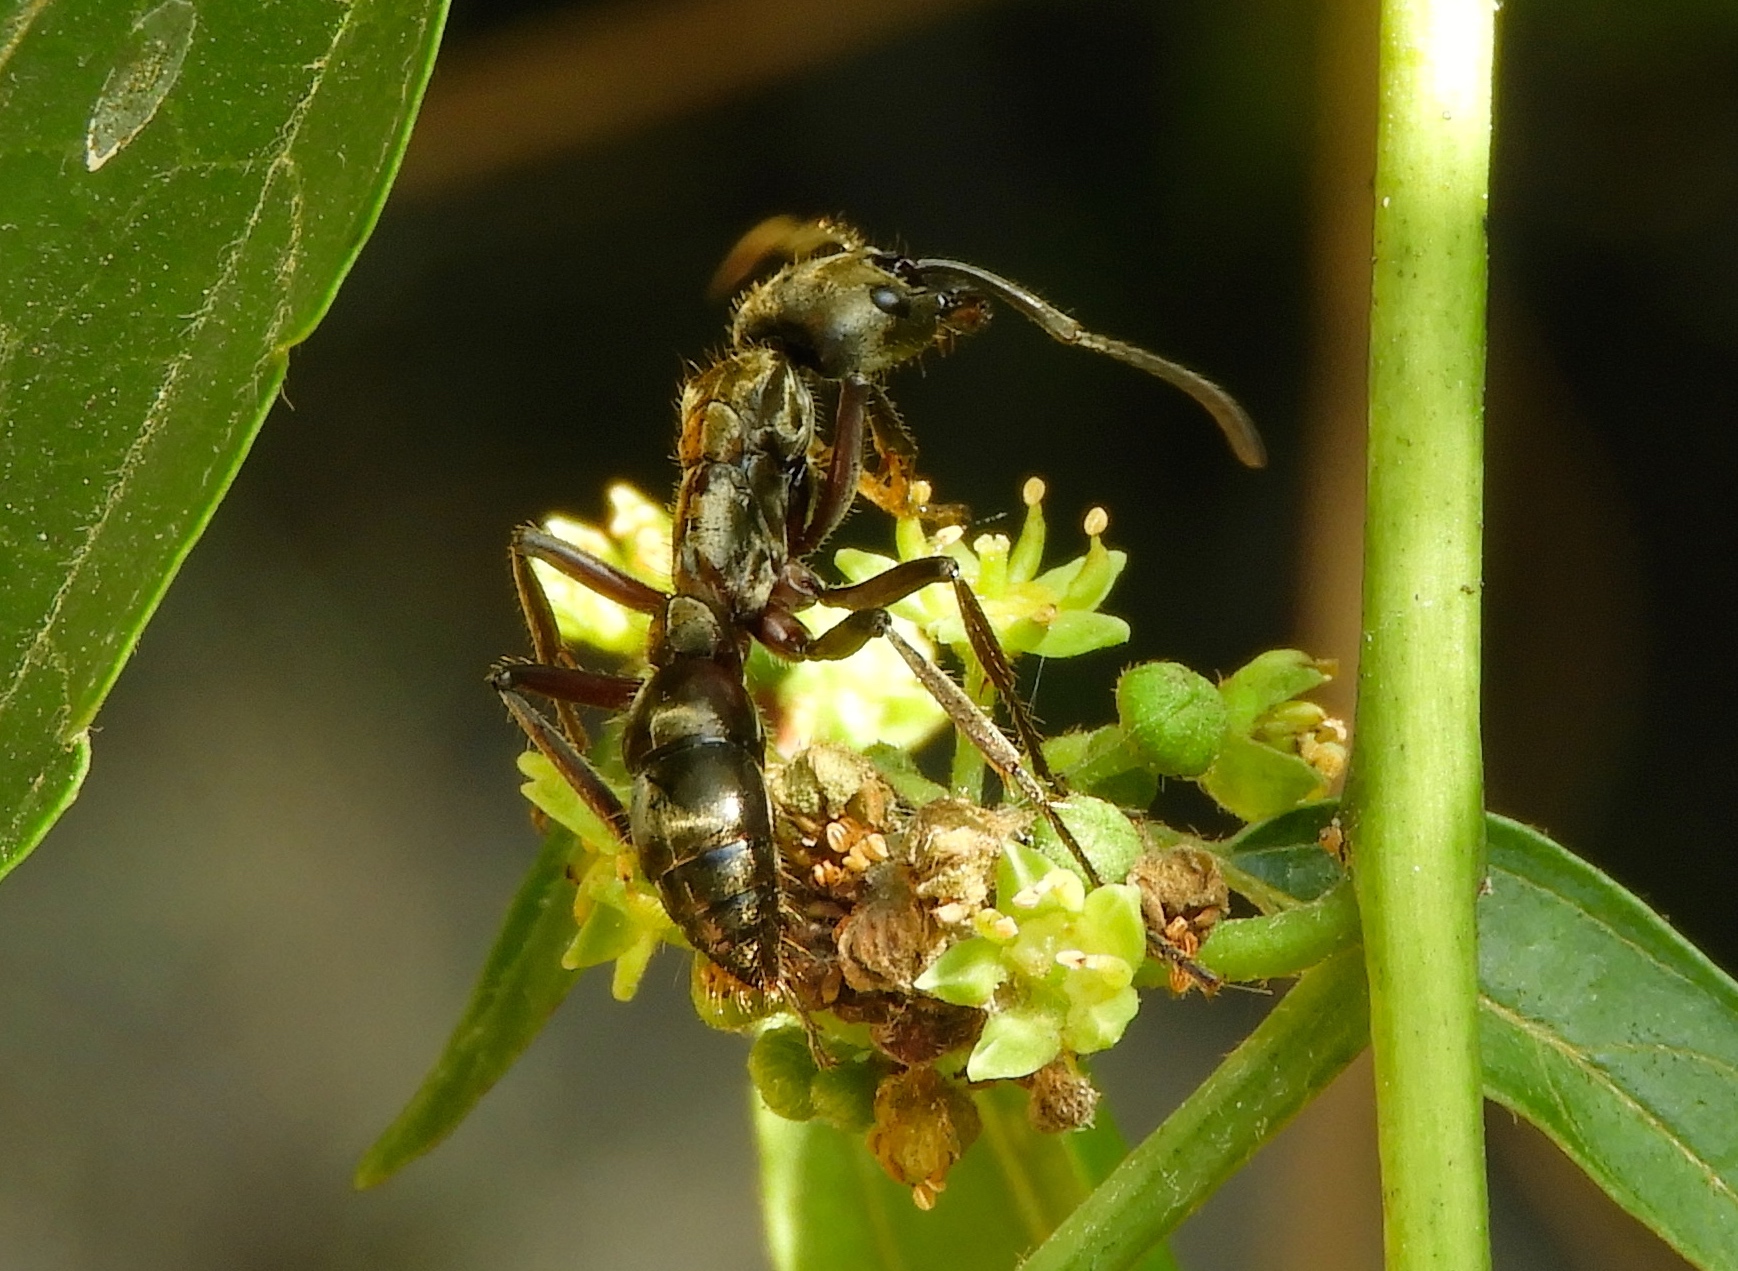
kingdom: Animalia
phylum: Arthropoda
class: Insecta
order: Hymenoptera
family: Formicidae
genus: Pachycondyla
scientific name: Pachycondyla villosa
